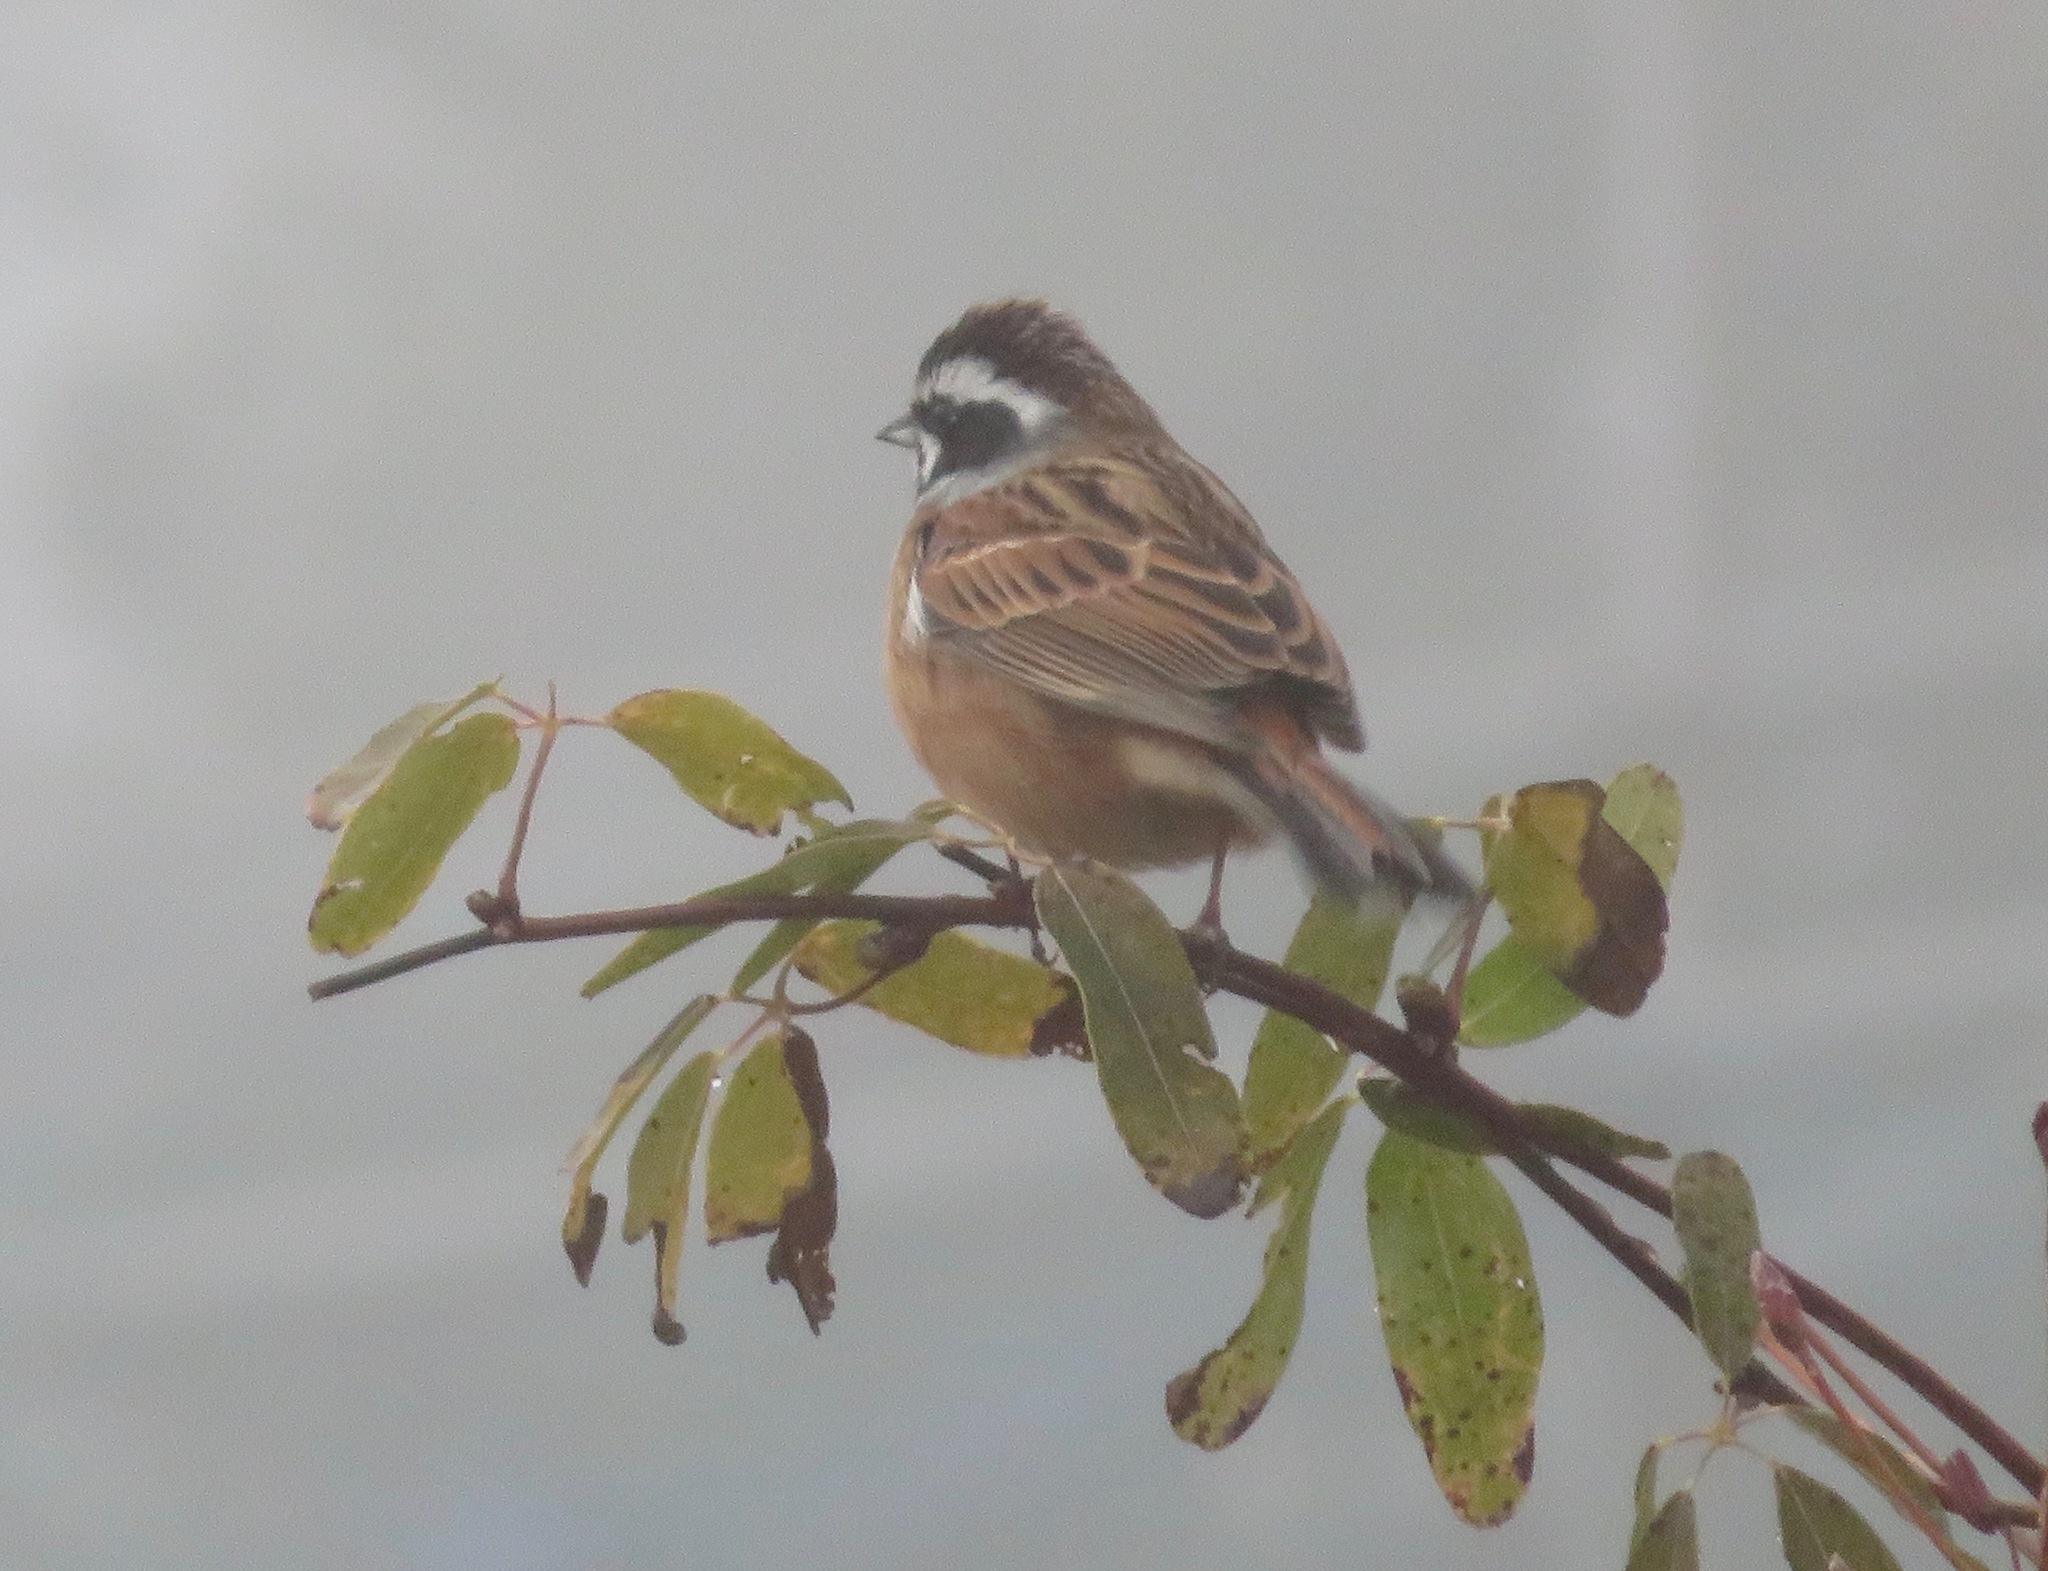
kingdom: Animalia
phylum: Chordata
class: Aves
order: Passeriformes
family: Emberizidae
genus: Emberiza
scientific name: Emberiza cioides
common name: Meadow bunting
